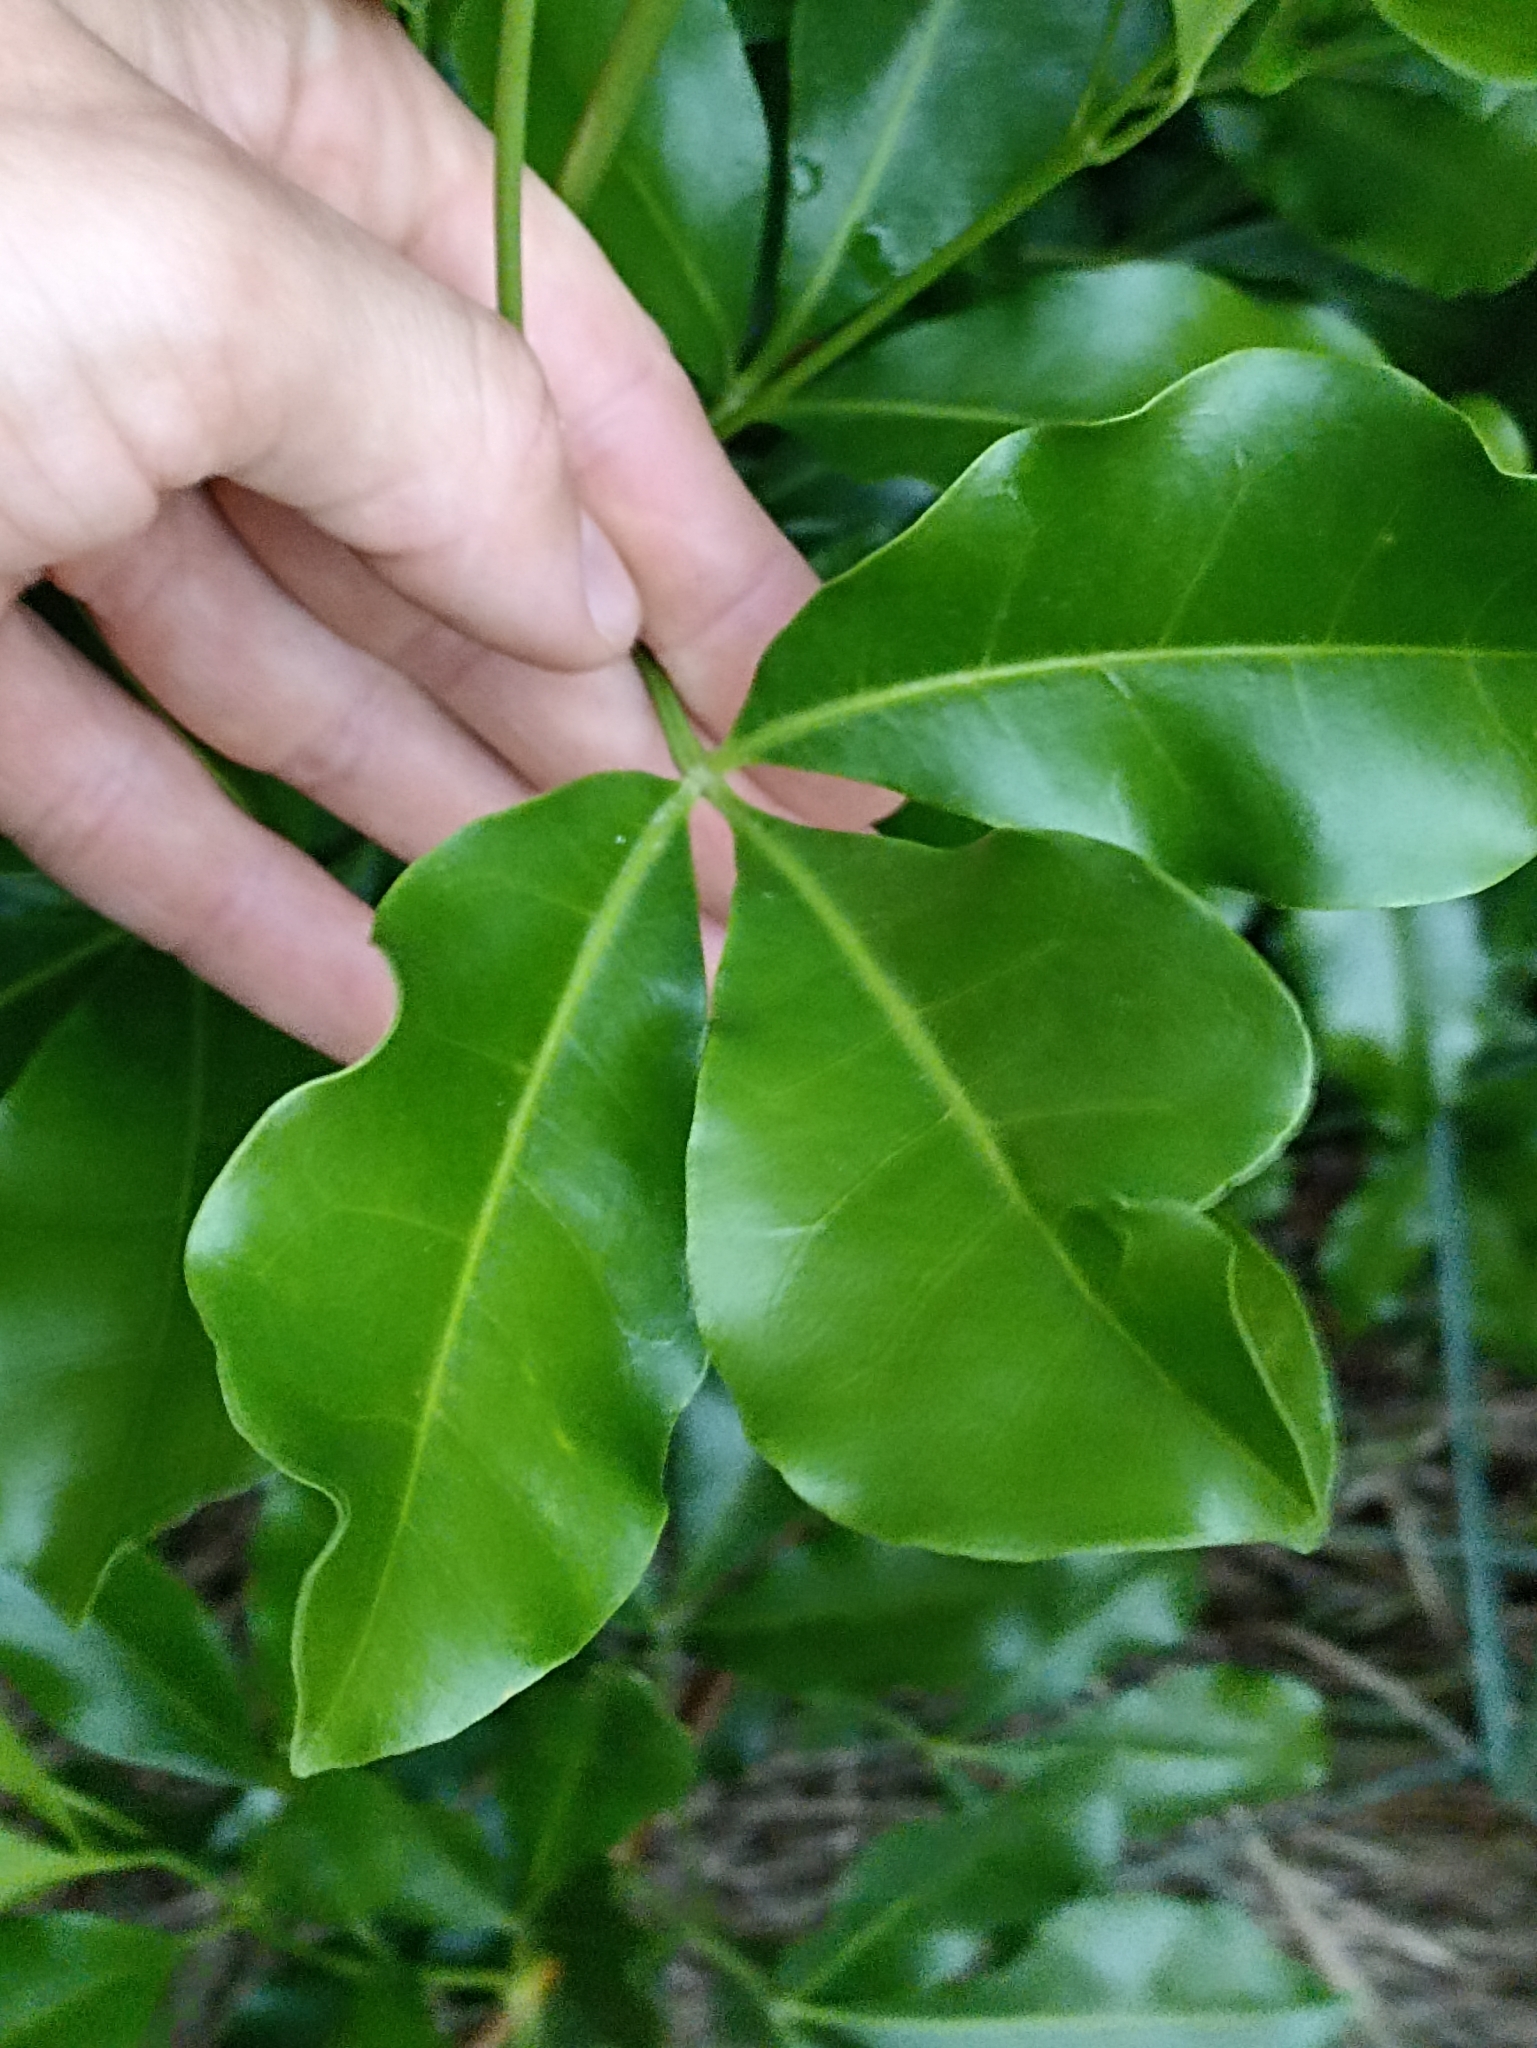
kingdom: Plantae
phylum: Tracheophyta
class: Magnoliopsida
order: Sapindales
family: Rutaceae
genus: Melicope
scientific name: Melicope ternata
